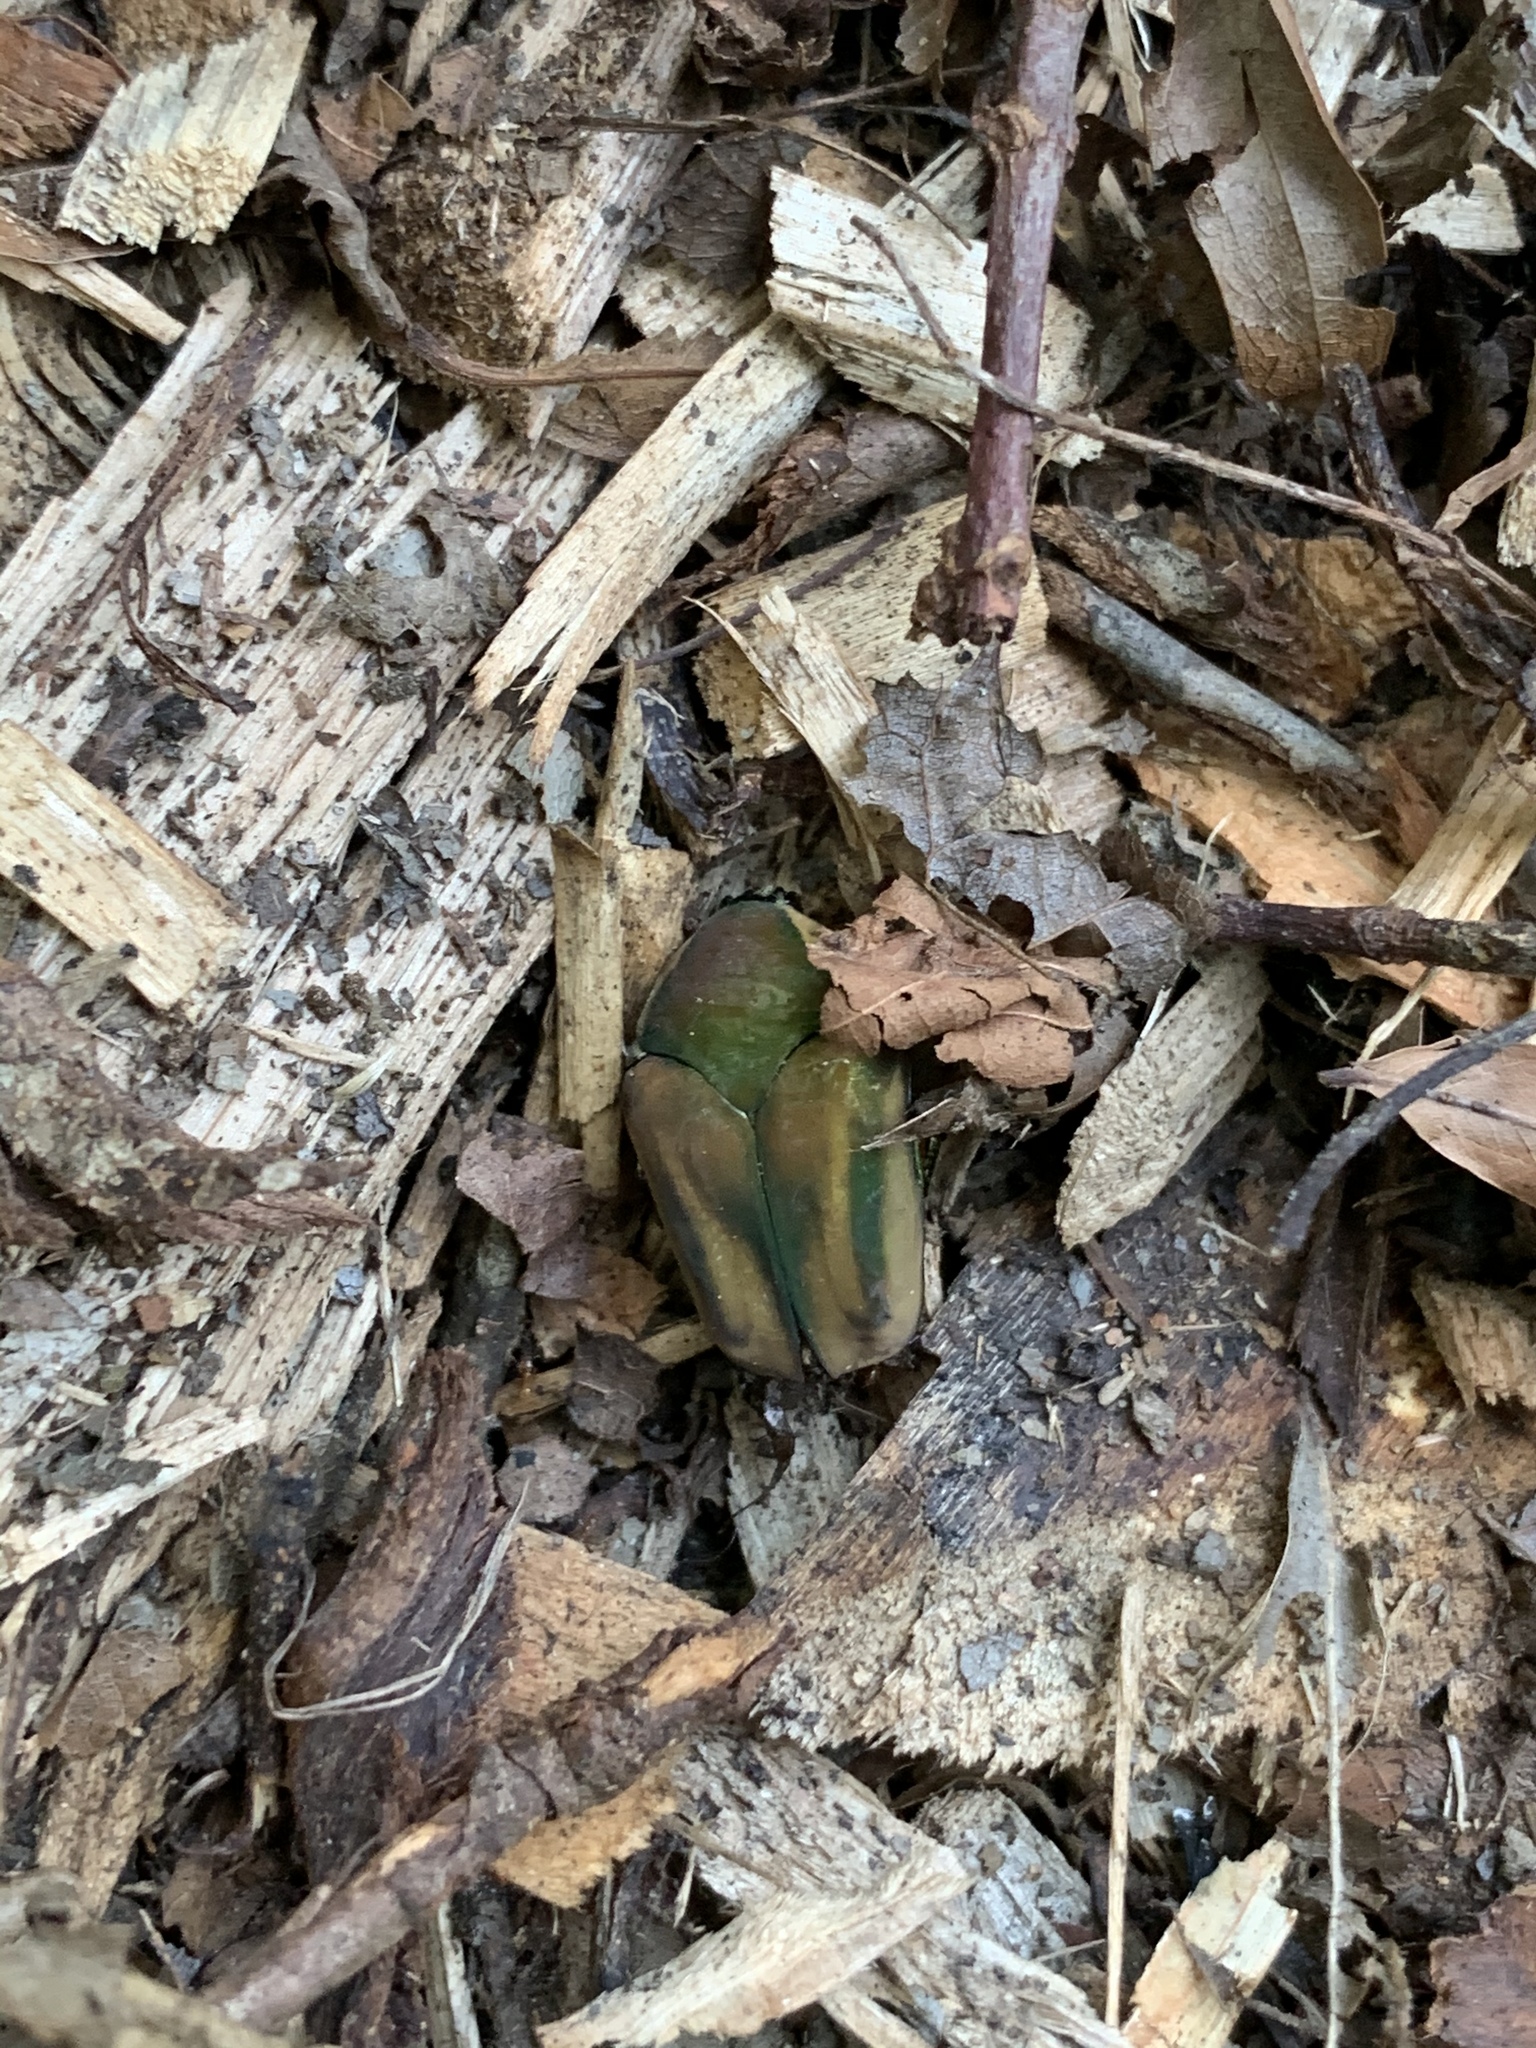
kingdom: Animalia
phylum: Arthropoda
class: Insecta
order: Coleoptera
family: Scarabaeidae
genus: Cotinis
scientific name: Cotinis nitida
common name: Common green june beetle
